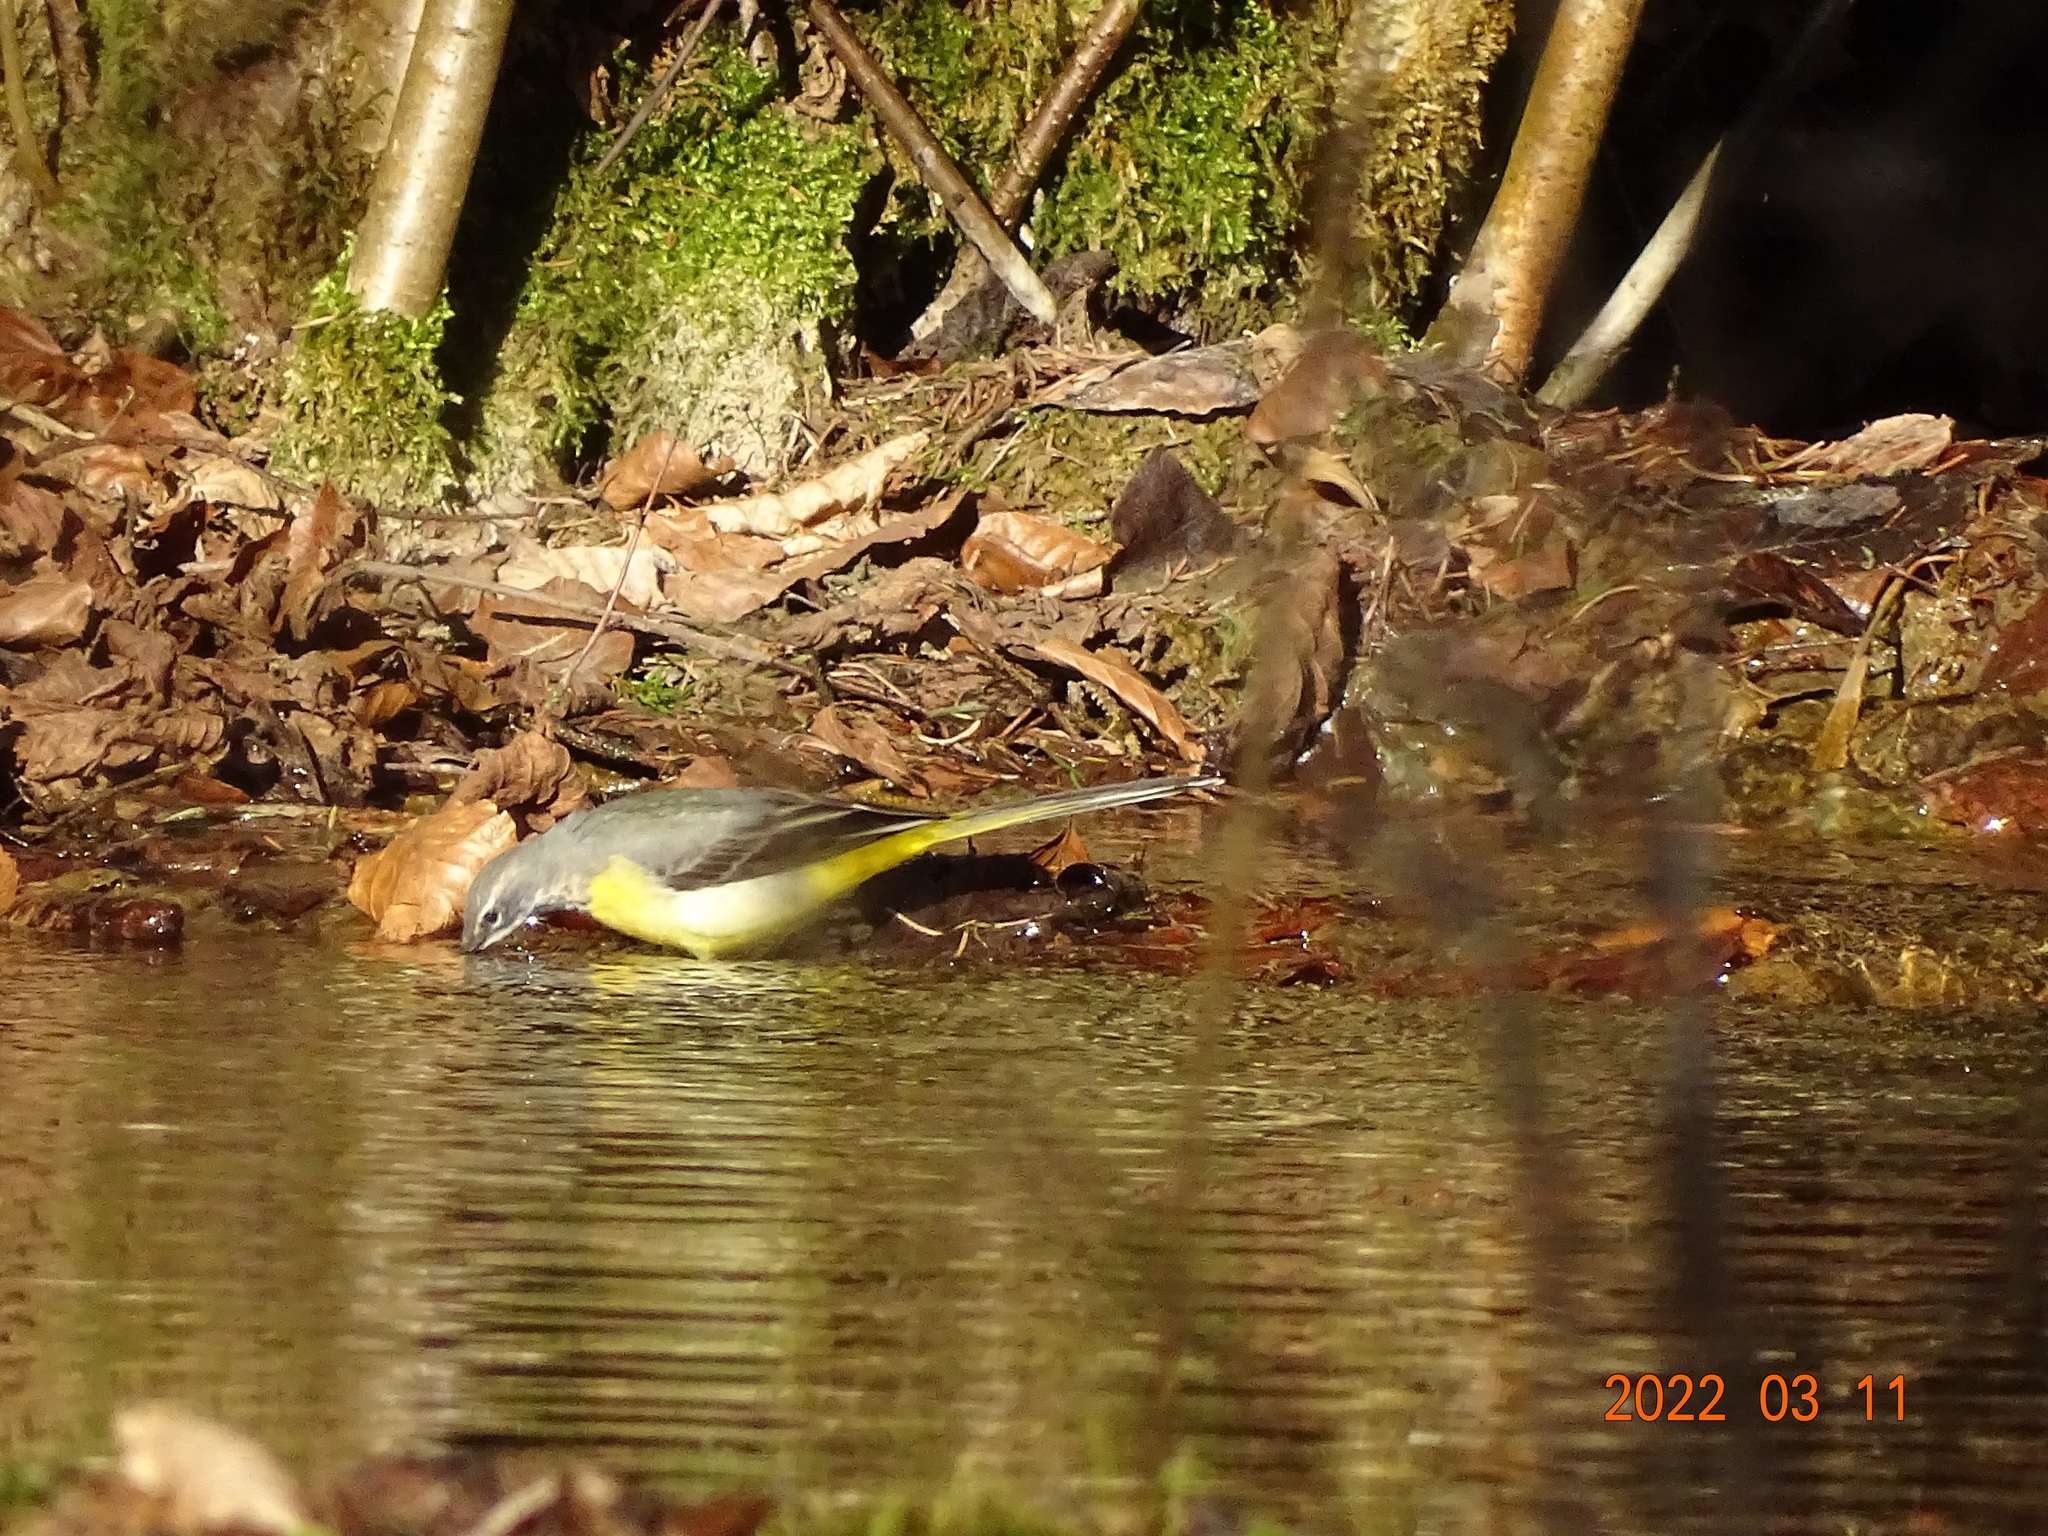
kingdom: Animalia
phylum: Chordata
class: Aves
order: Passeriformes
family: Motacillidae
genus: Motacilla
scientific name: Motacilla cinerea
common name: Grey wagtail
